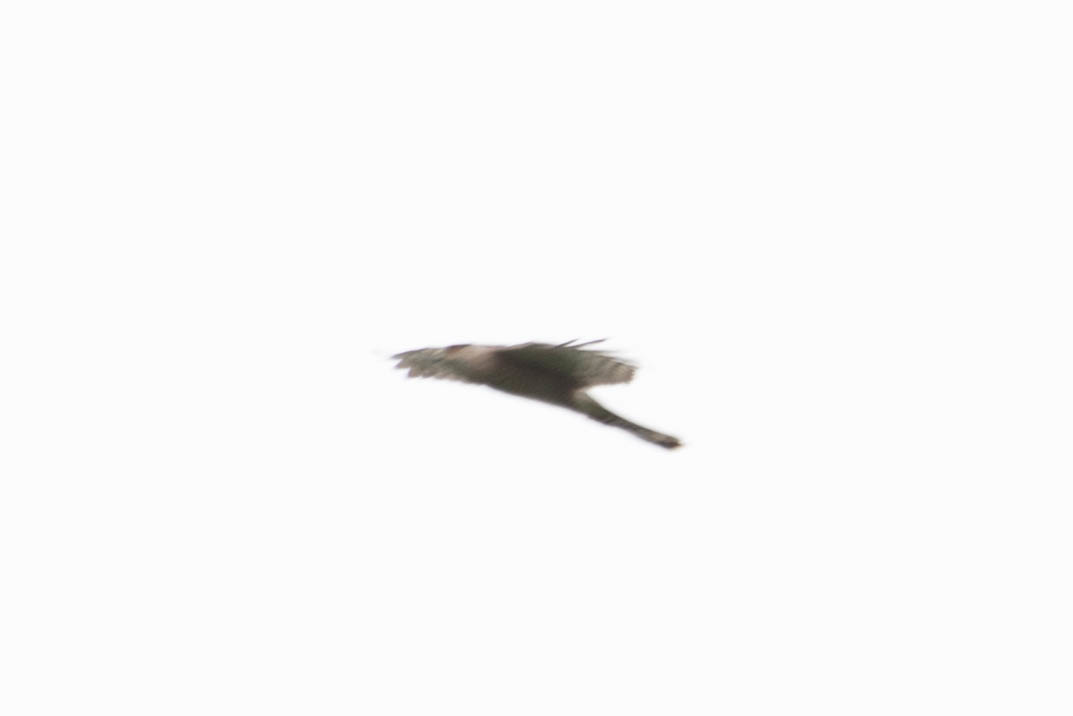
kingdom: Animalia
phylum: Chordata
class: Aves
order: Accipitriformes
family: Accipitridae
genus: Accipiter
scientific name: Accipiter cooperii
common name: Cooper's hawk
